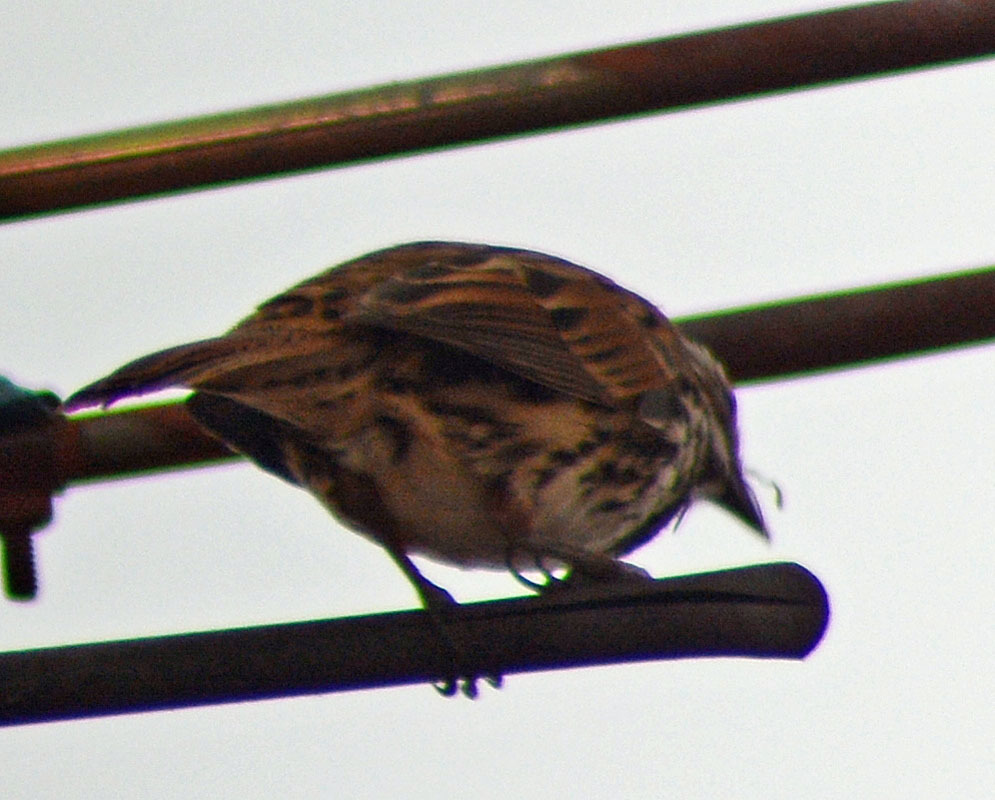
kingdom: Animalia
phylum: Chordata
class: Aves
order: Passeriformes
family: Passerellidae
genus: Melospiza
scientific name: Melospiza melodia
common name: Song sparrow
